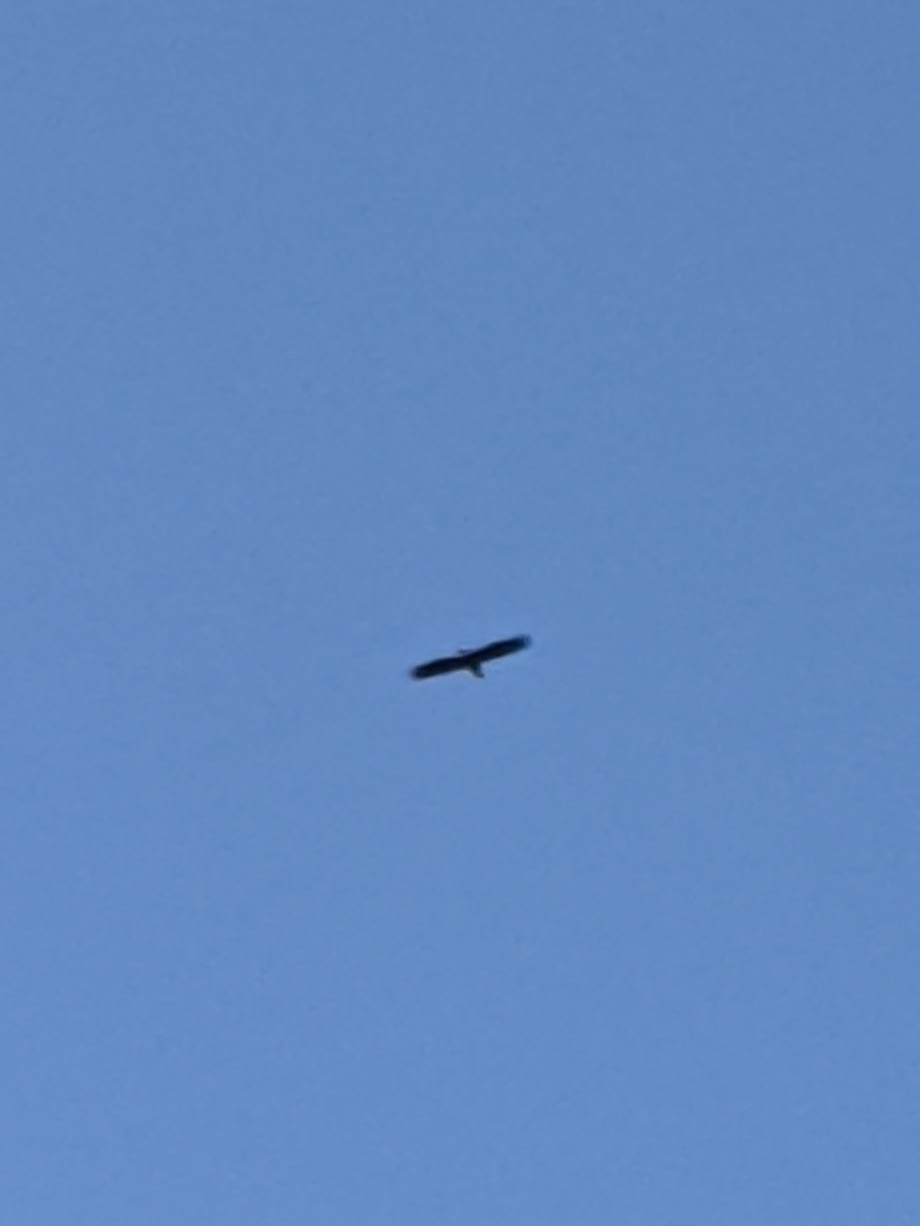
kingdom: Animalia
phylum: Chordata
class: Aves
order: Accipitriformes
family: Accipitridae
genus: Haliaeetus
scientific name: Haliaeetus leucocephalus
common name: Bald eagle
